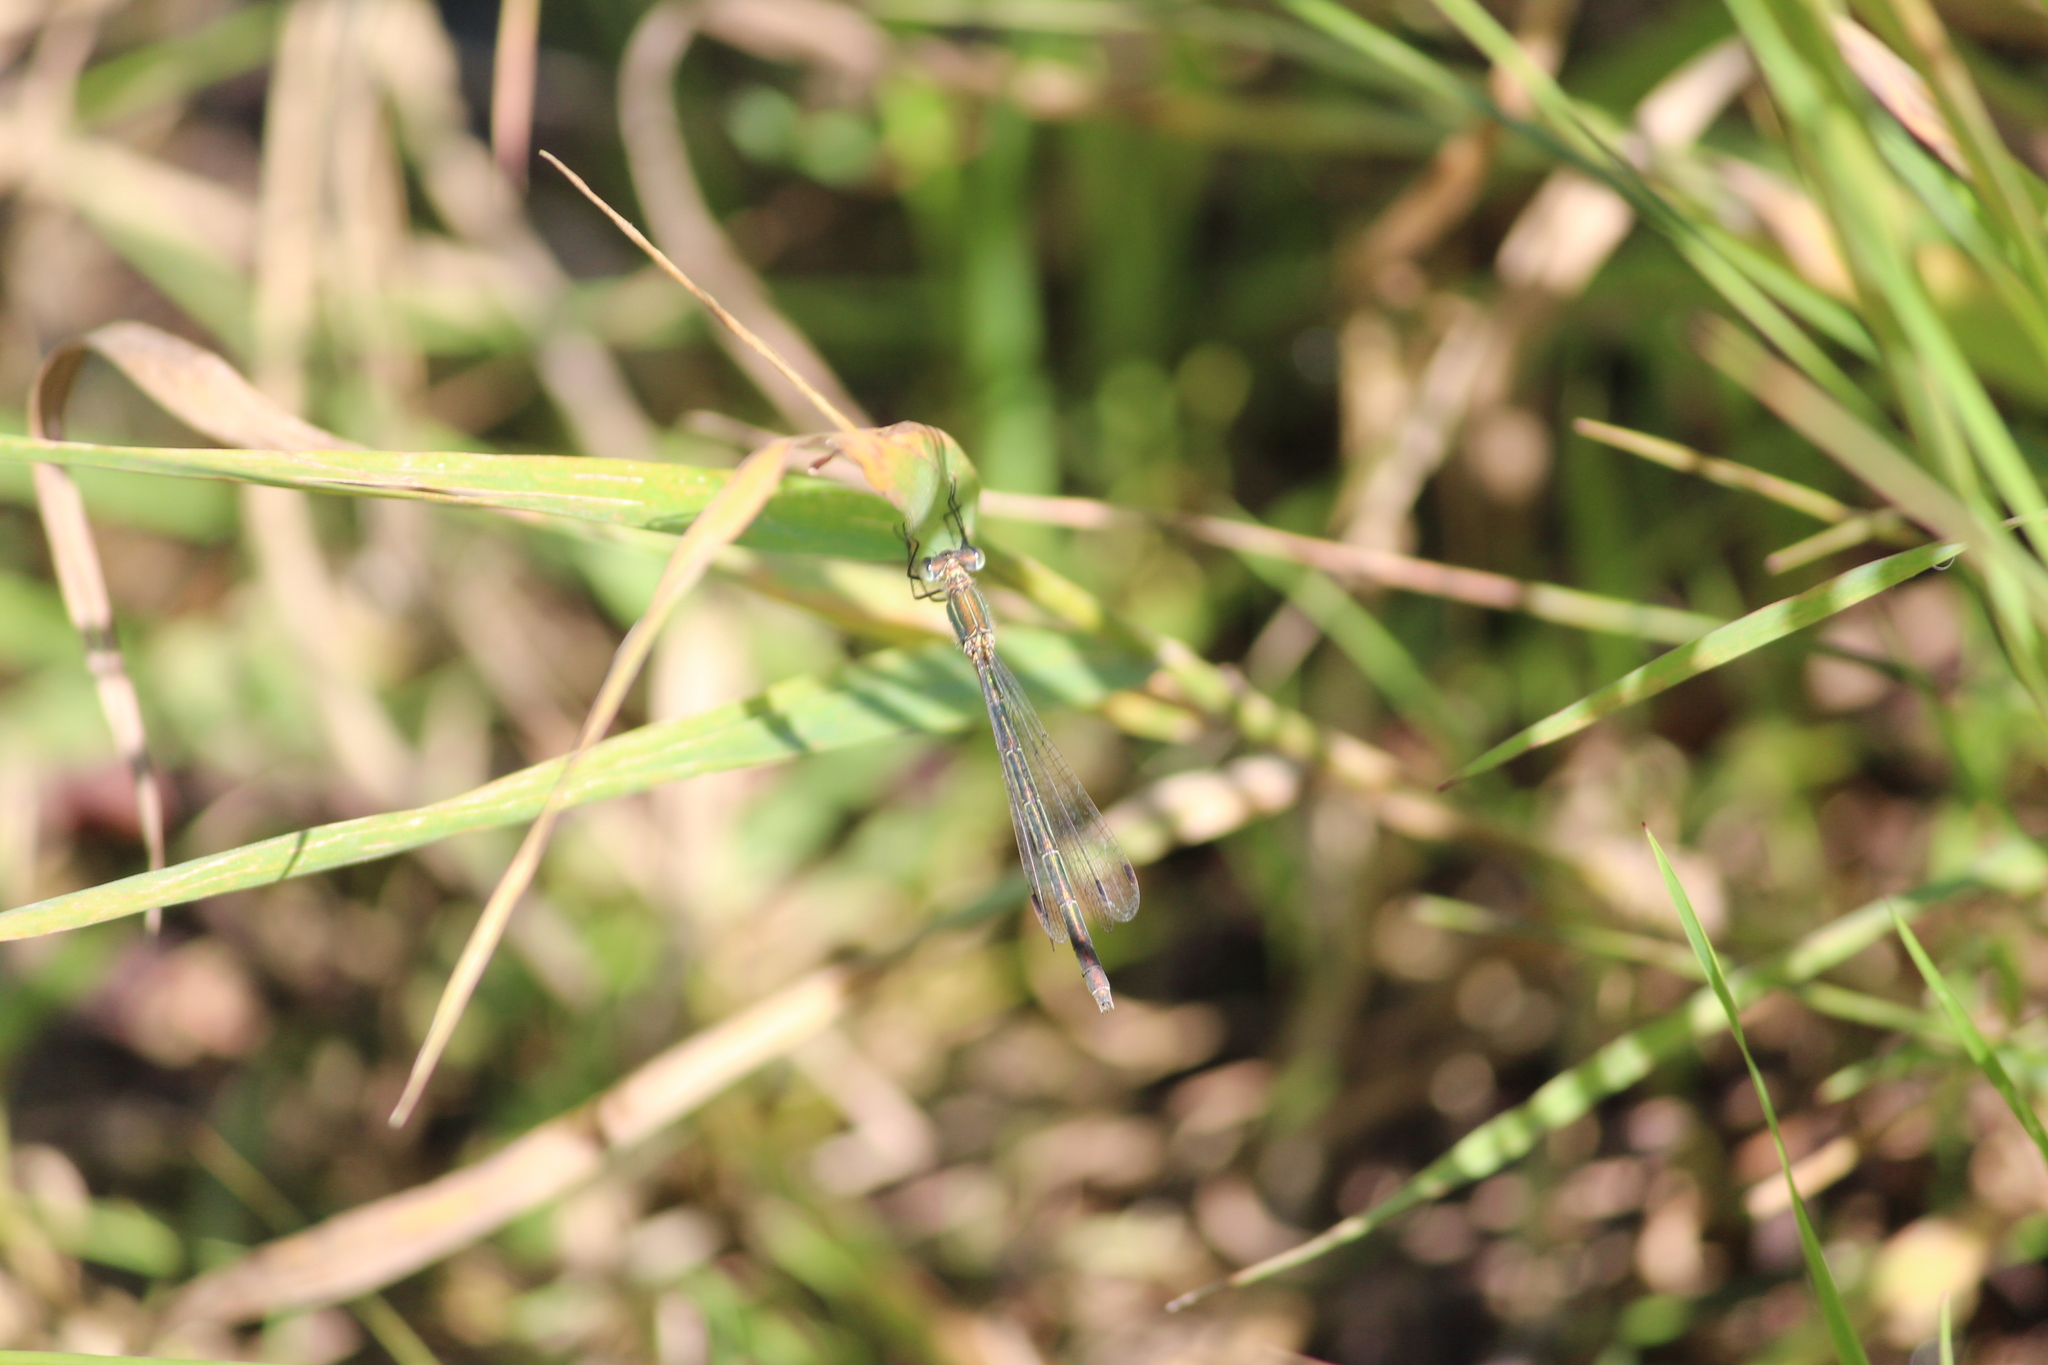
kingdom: Animalia
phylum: Arthropoda
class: Insecta
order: Odonata
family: Lestidae
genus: Lestes
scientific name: Lestes sponsa
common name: Common spreadwing
